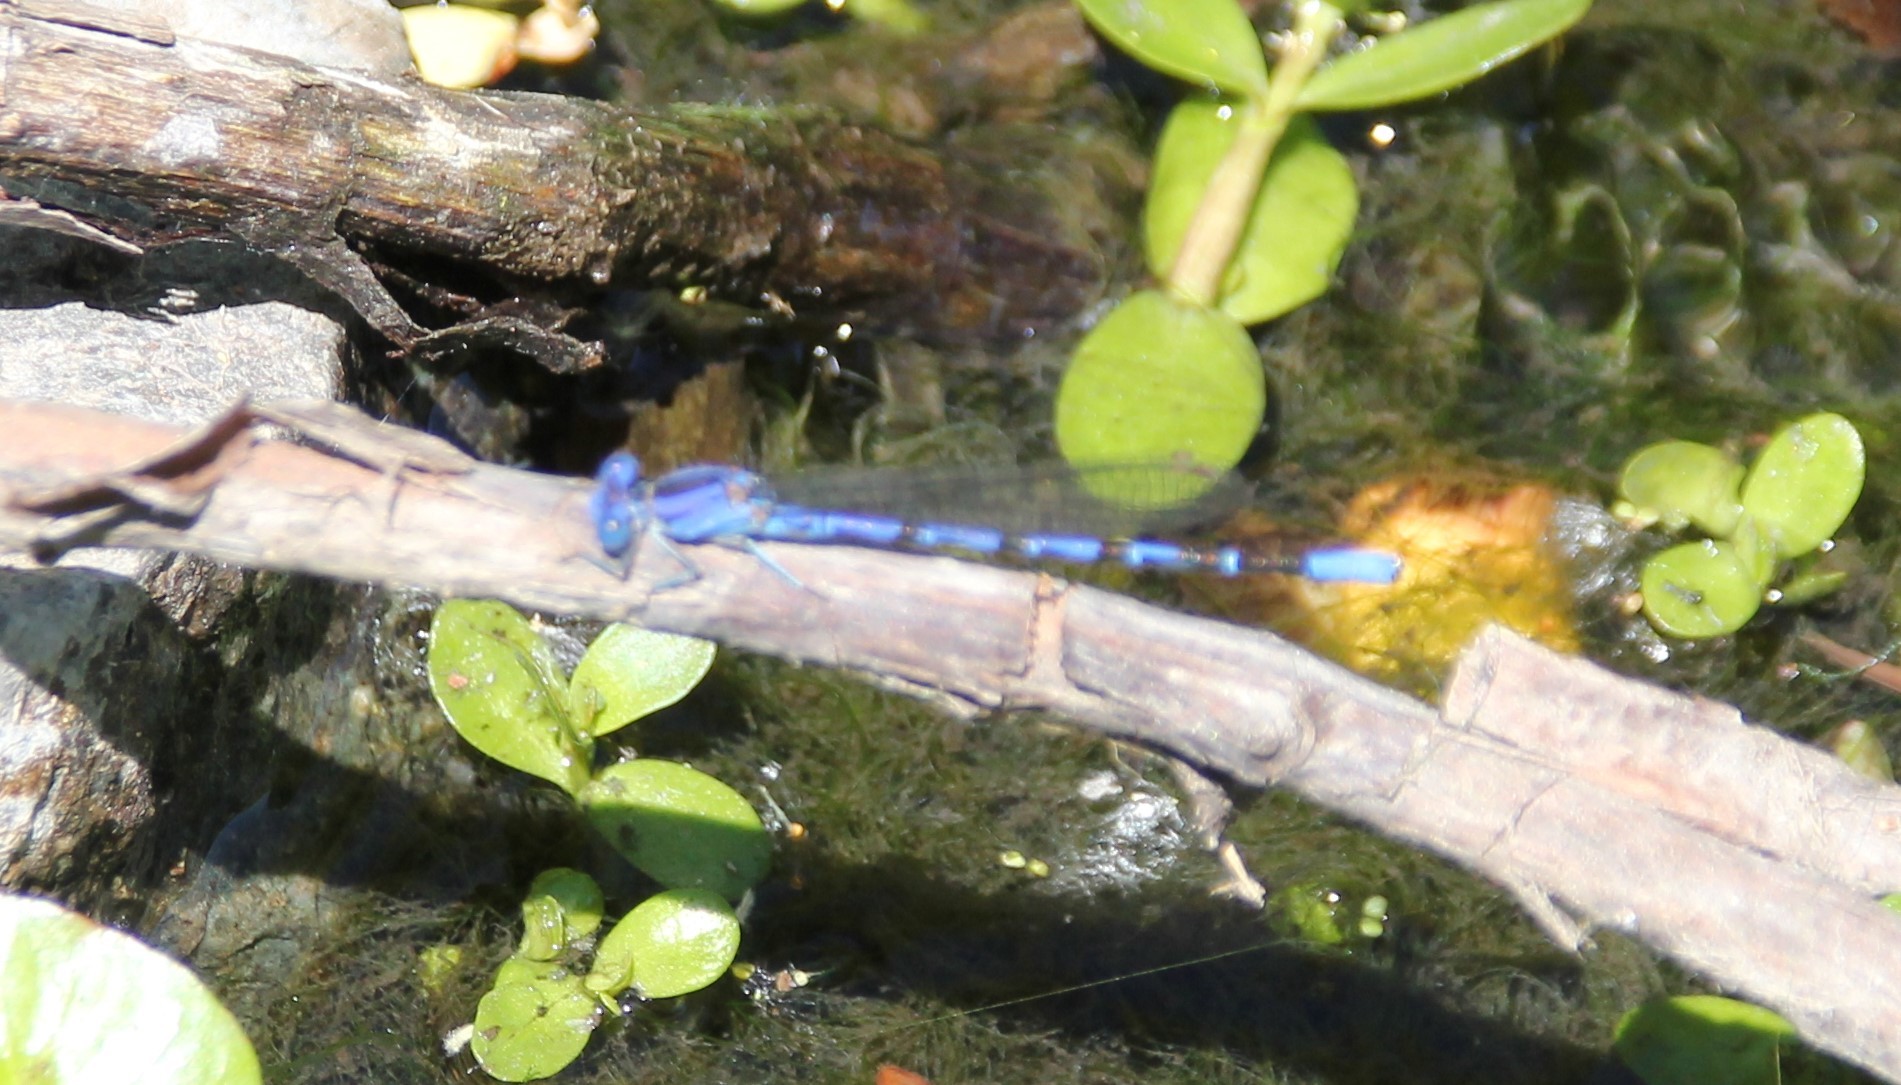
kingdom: Animalia
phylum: Arthropoda
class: Insecta
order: Odonata
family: Coenagrionidae
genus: Argia
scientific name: Argia vivida
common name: Vivid dancer
